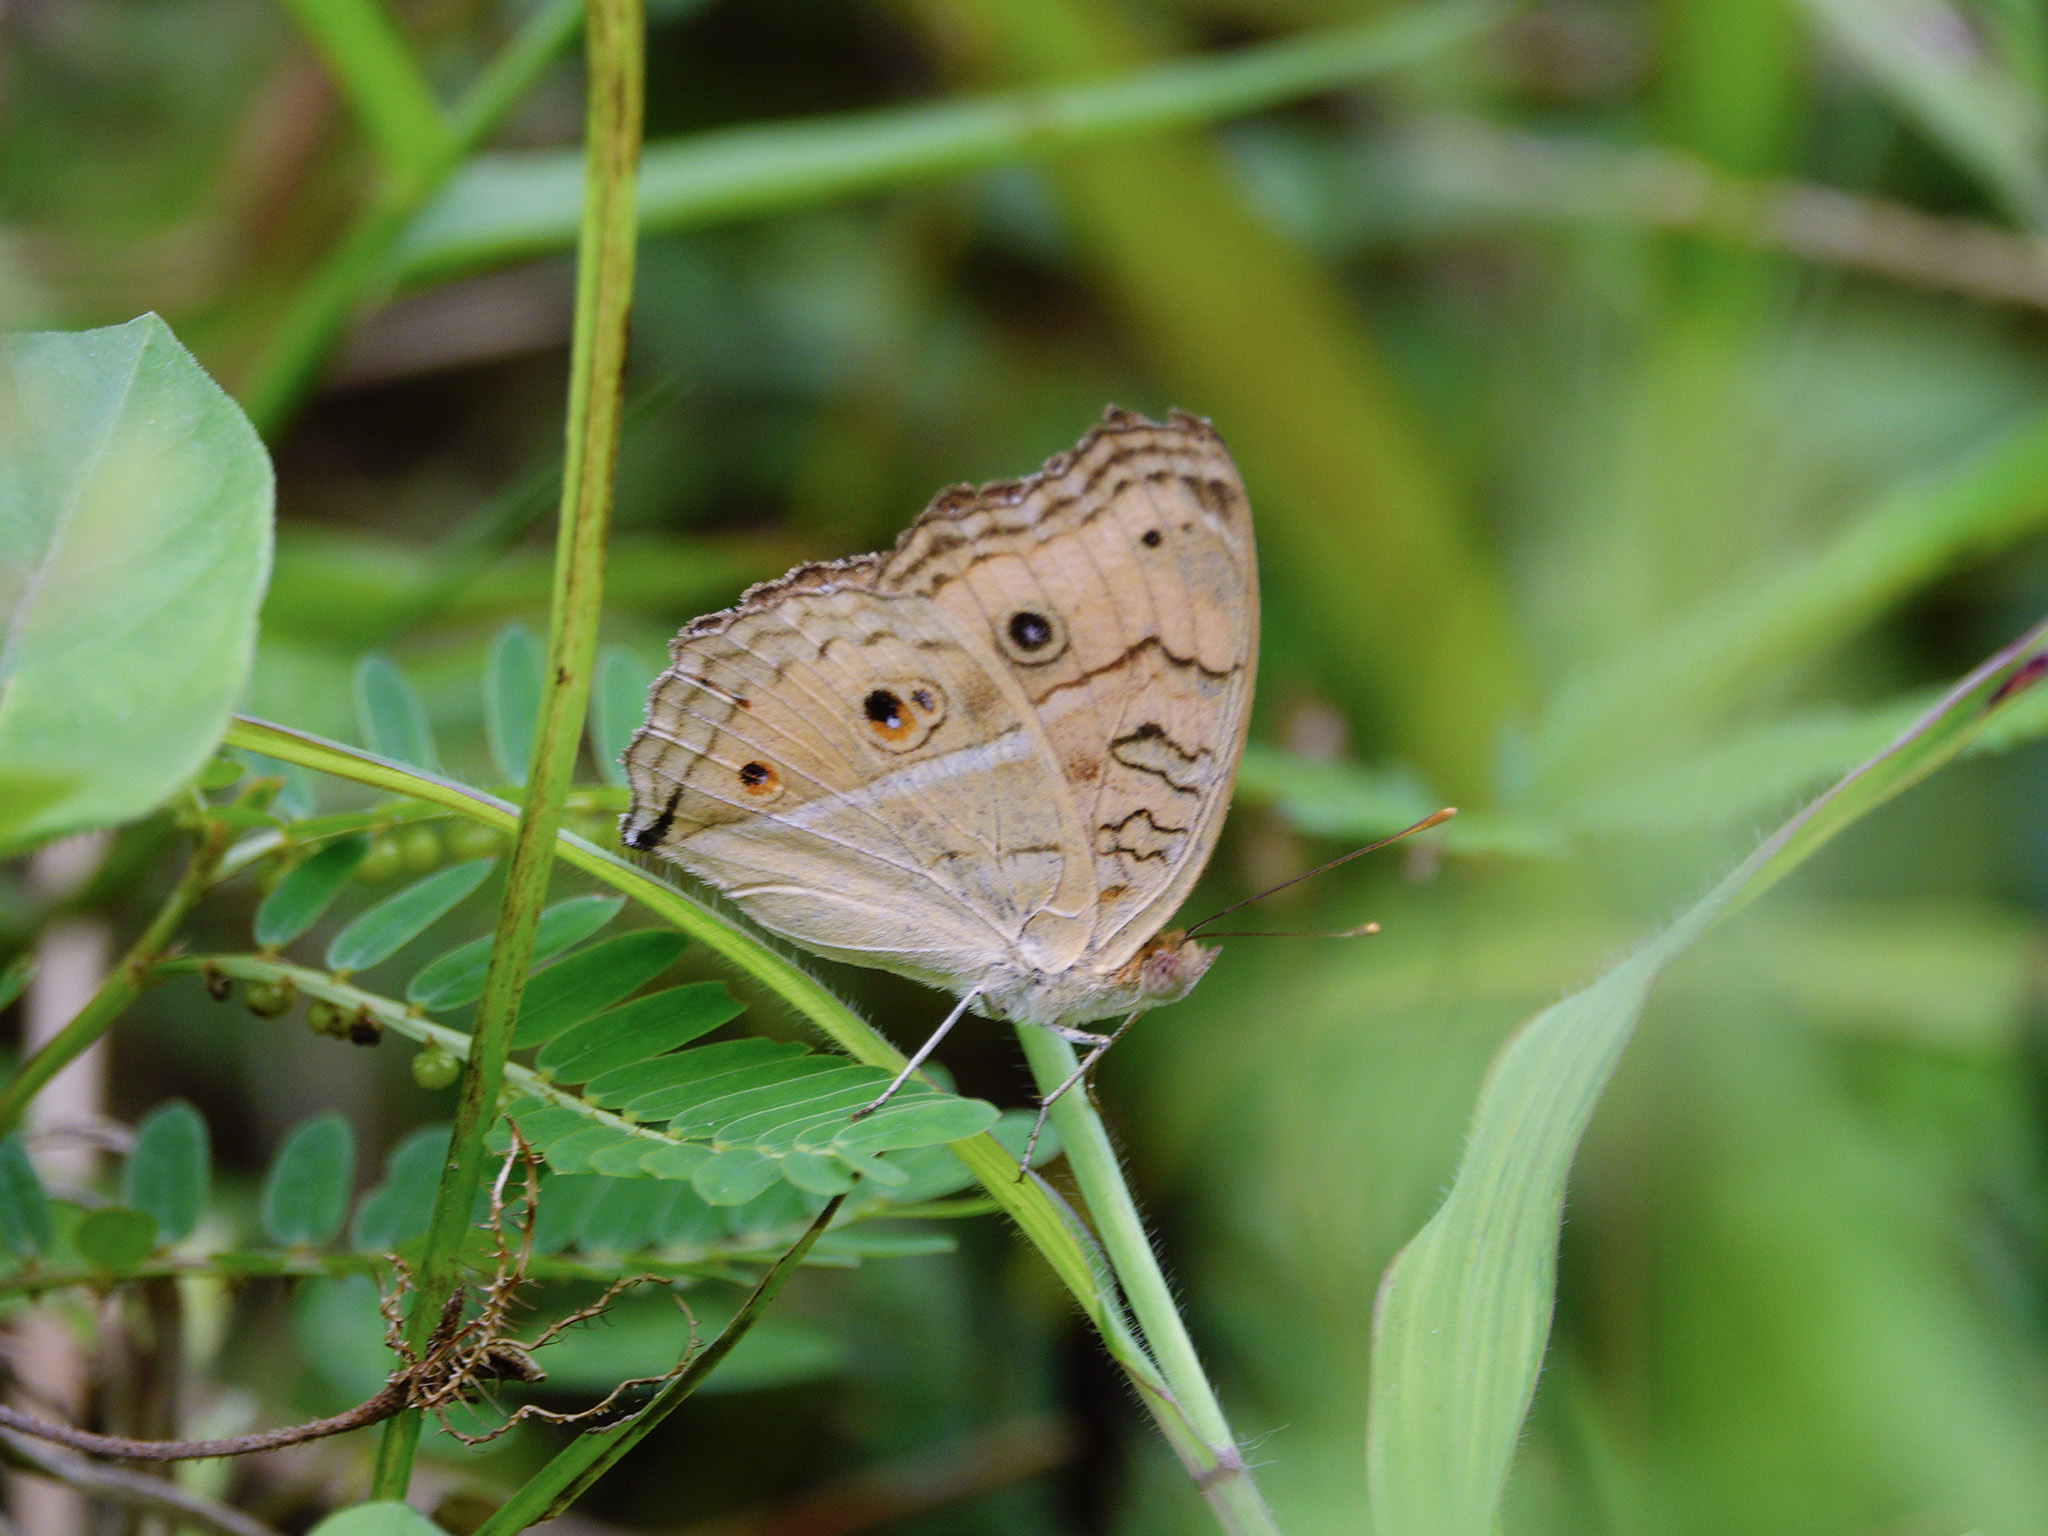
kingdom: Animalia
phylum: Arthropoda
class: Insecta
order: Lepidoptera
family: Nymphalidae
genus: Junonia
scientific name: Junonia almana
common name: Peacock pansy
